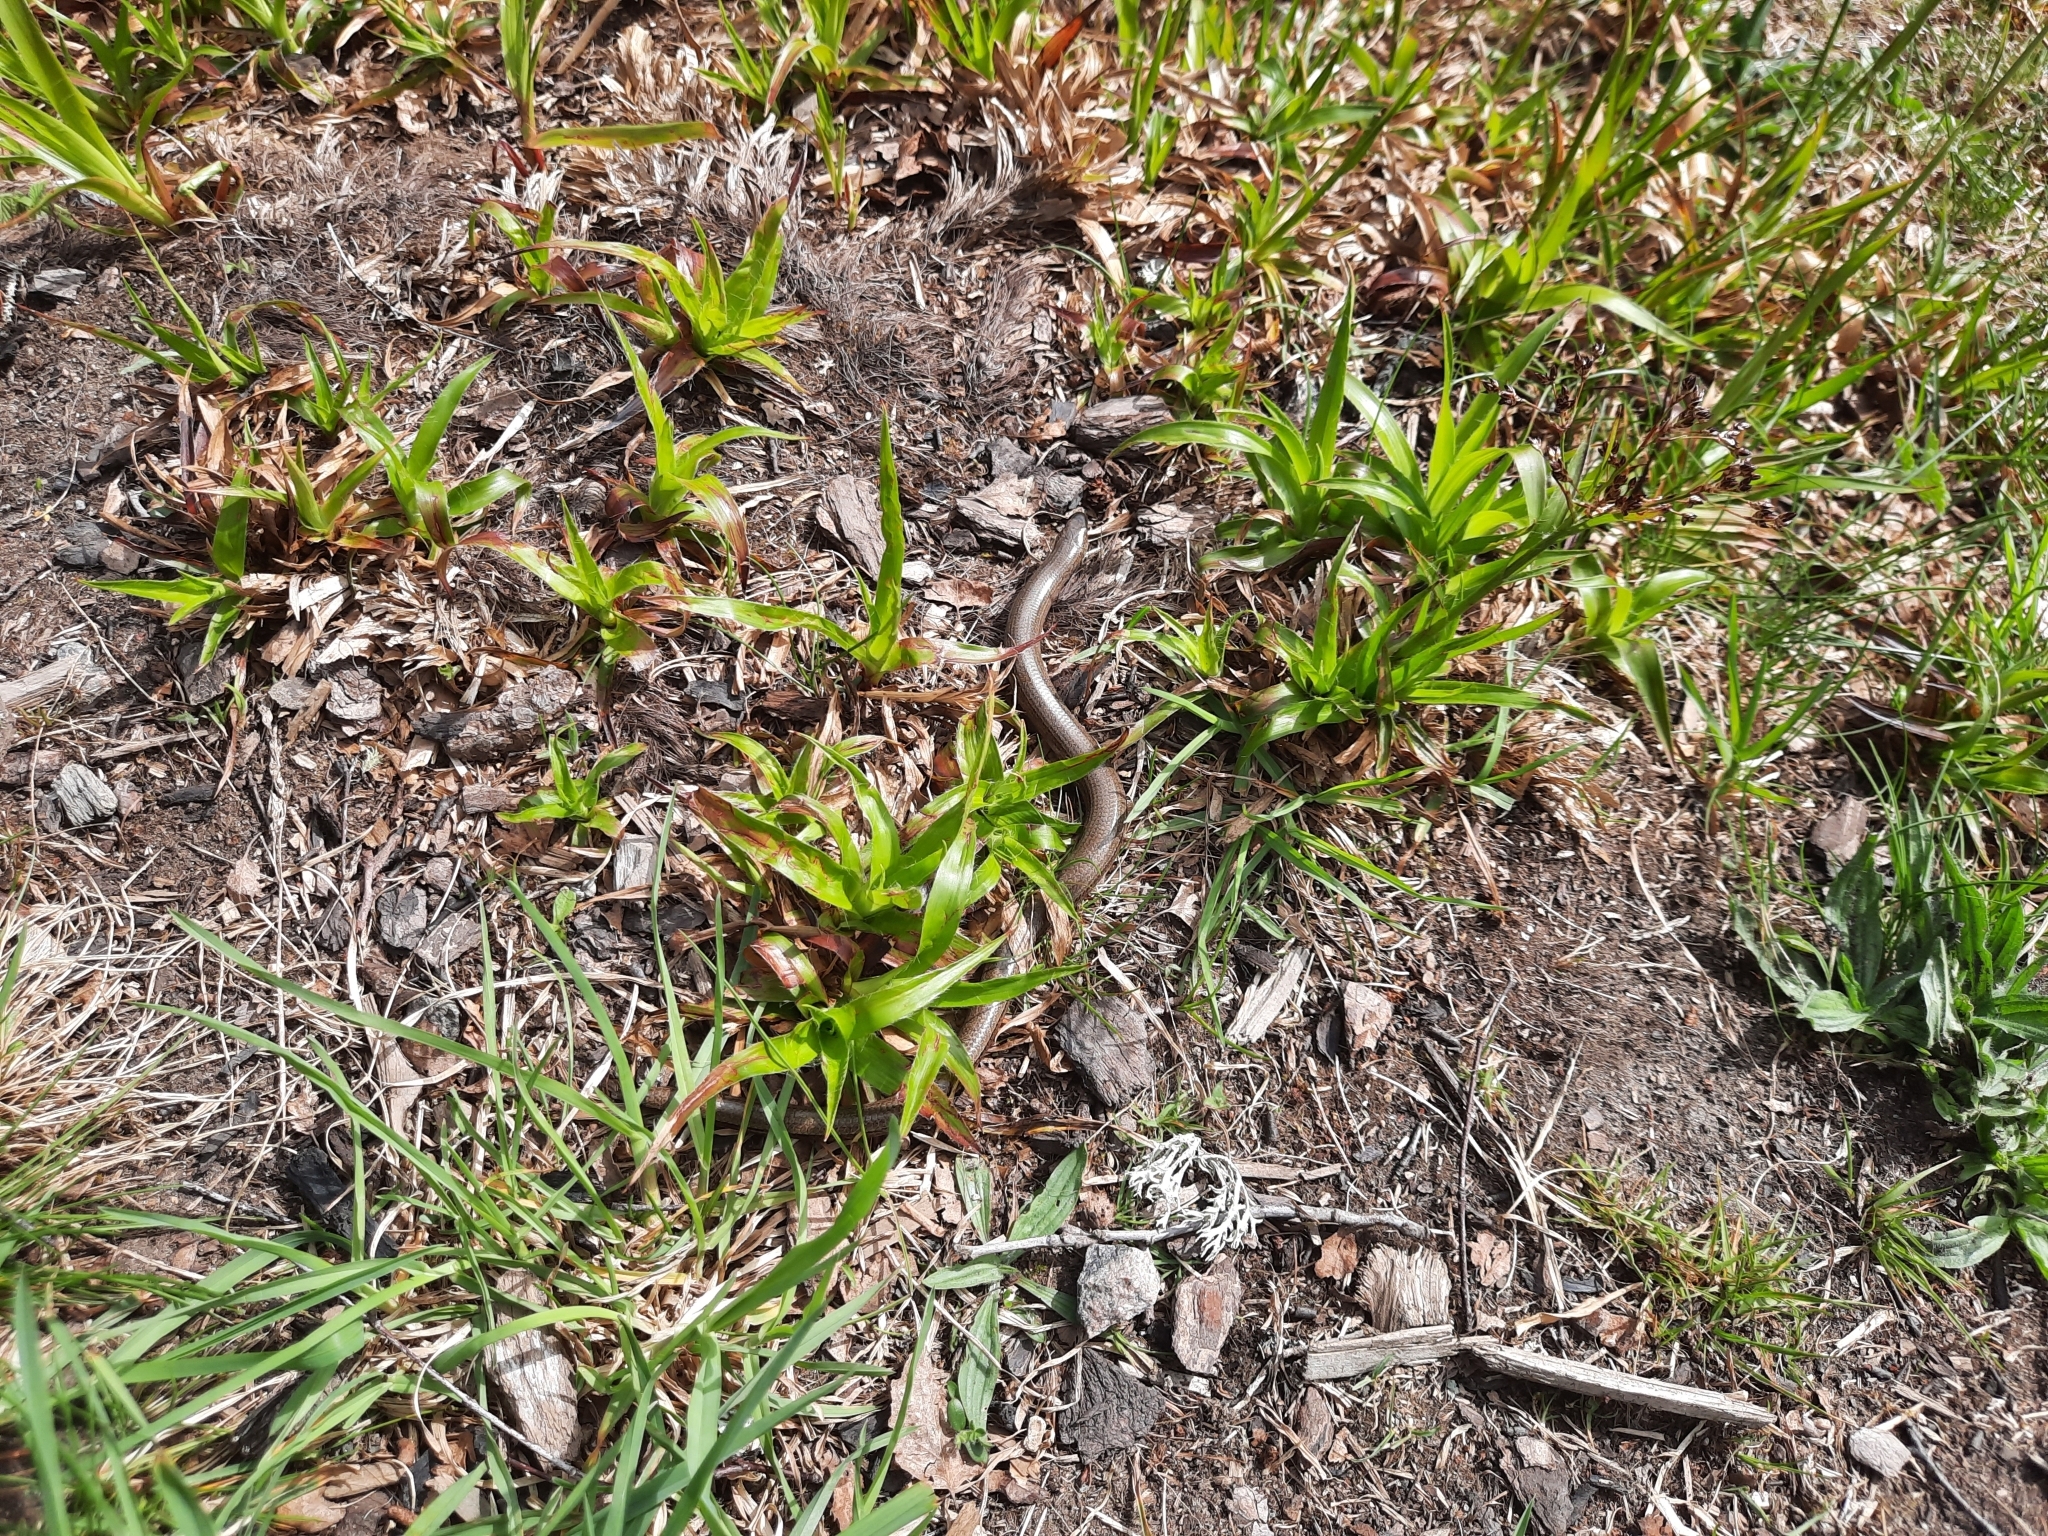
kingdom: Animalia
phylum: Chordata
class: Squamata
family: Anguidae
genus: Anguis
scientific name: Anguis fragilis
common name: Slow worm
